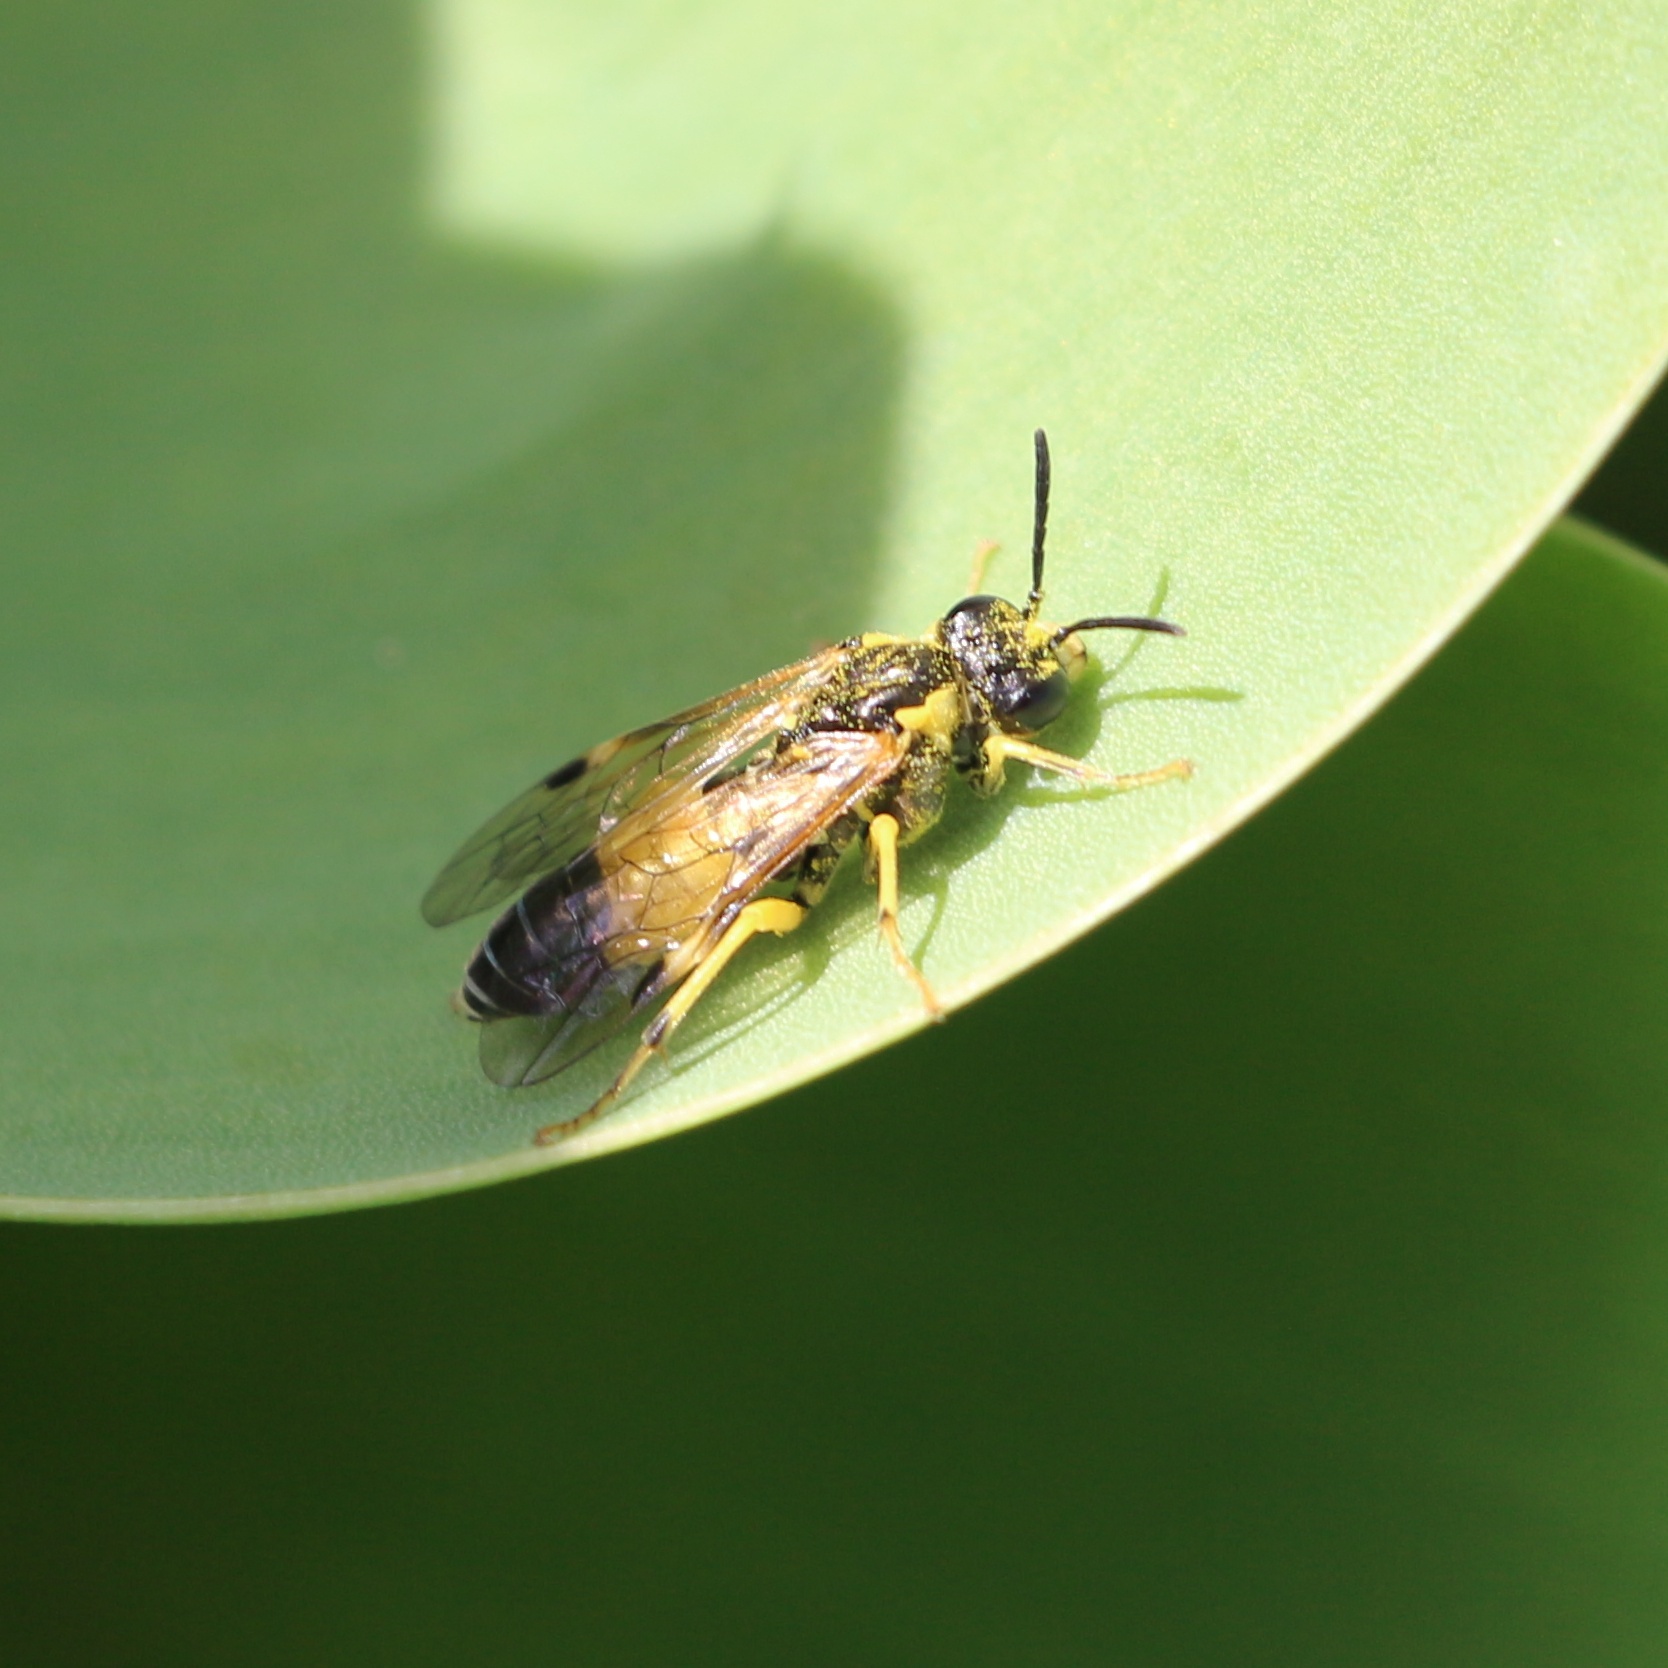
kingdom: Animalia
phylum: Arthropoda
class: Insecta
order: Hymenoptera
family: Tenthredinidae
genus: Tenthredo
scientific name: Tenthredo talyshensis
